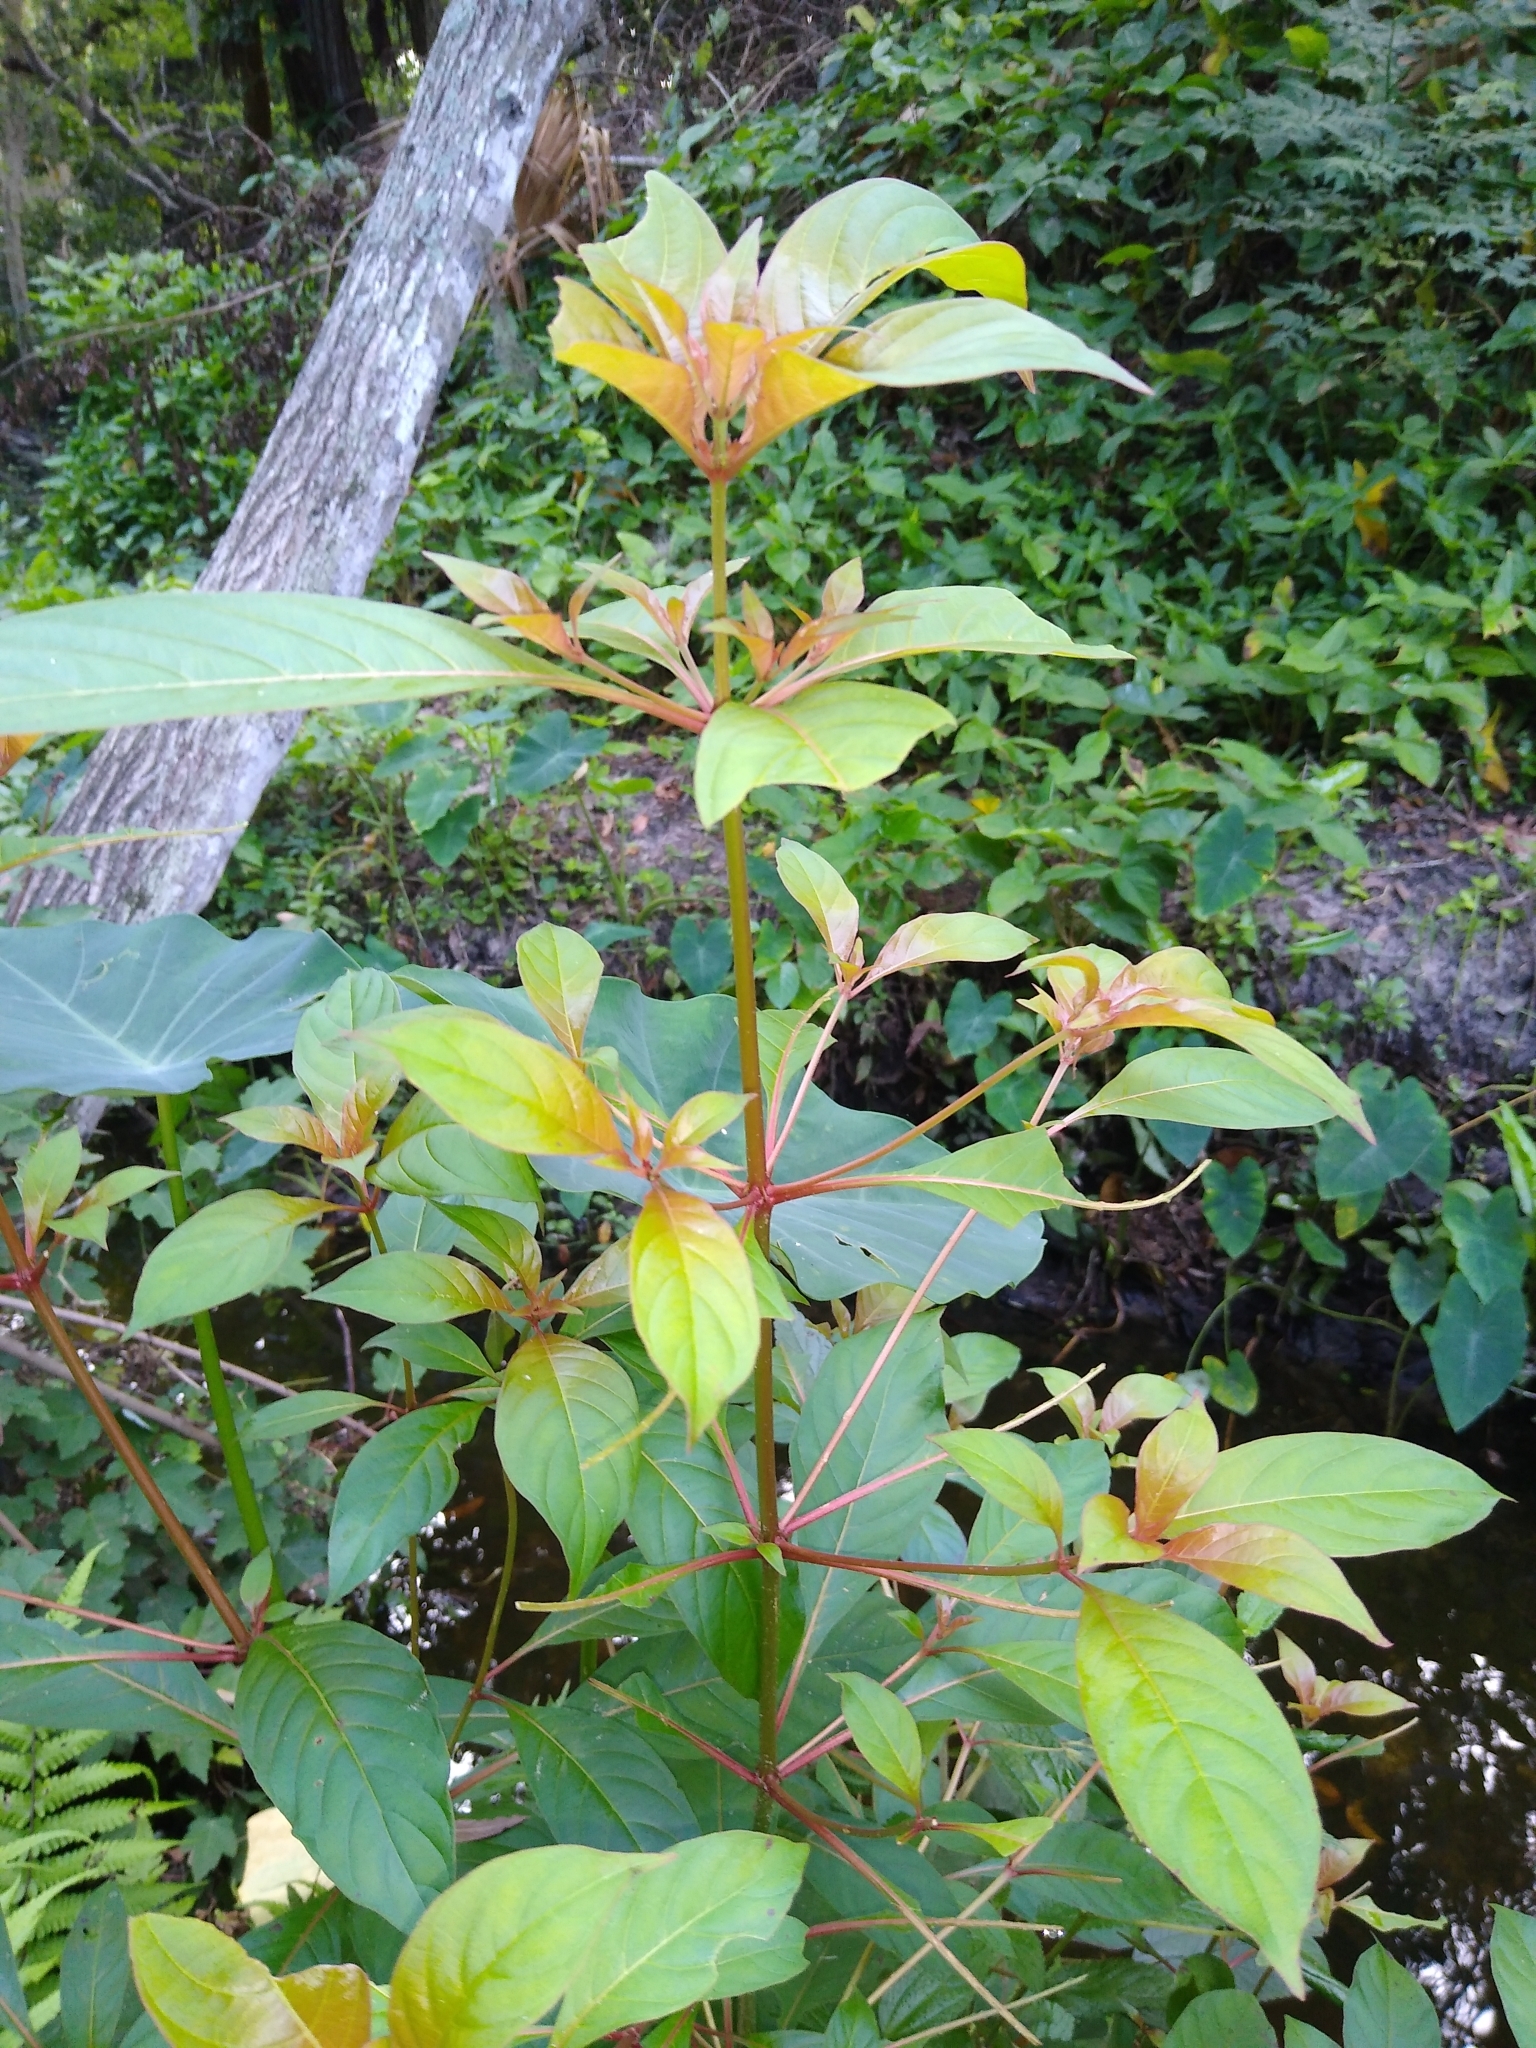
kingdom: Plantae
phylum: Tracheophyta
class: Magnoliopsida
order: Gentianales
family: Rubiaceae
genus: Hamelia
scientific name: Hamelia patens
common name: Redhead
